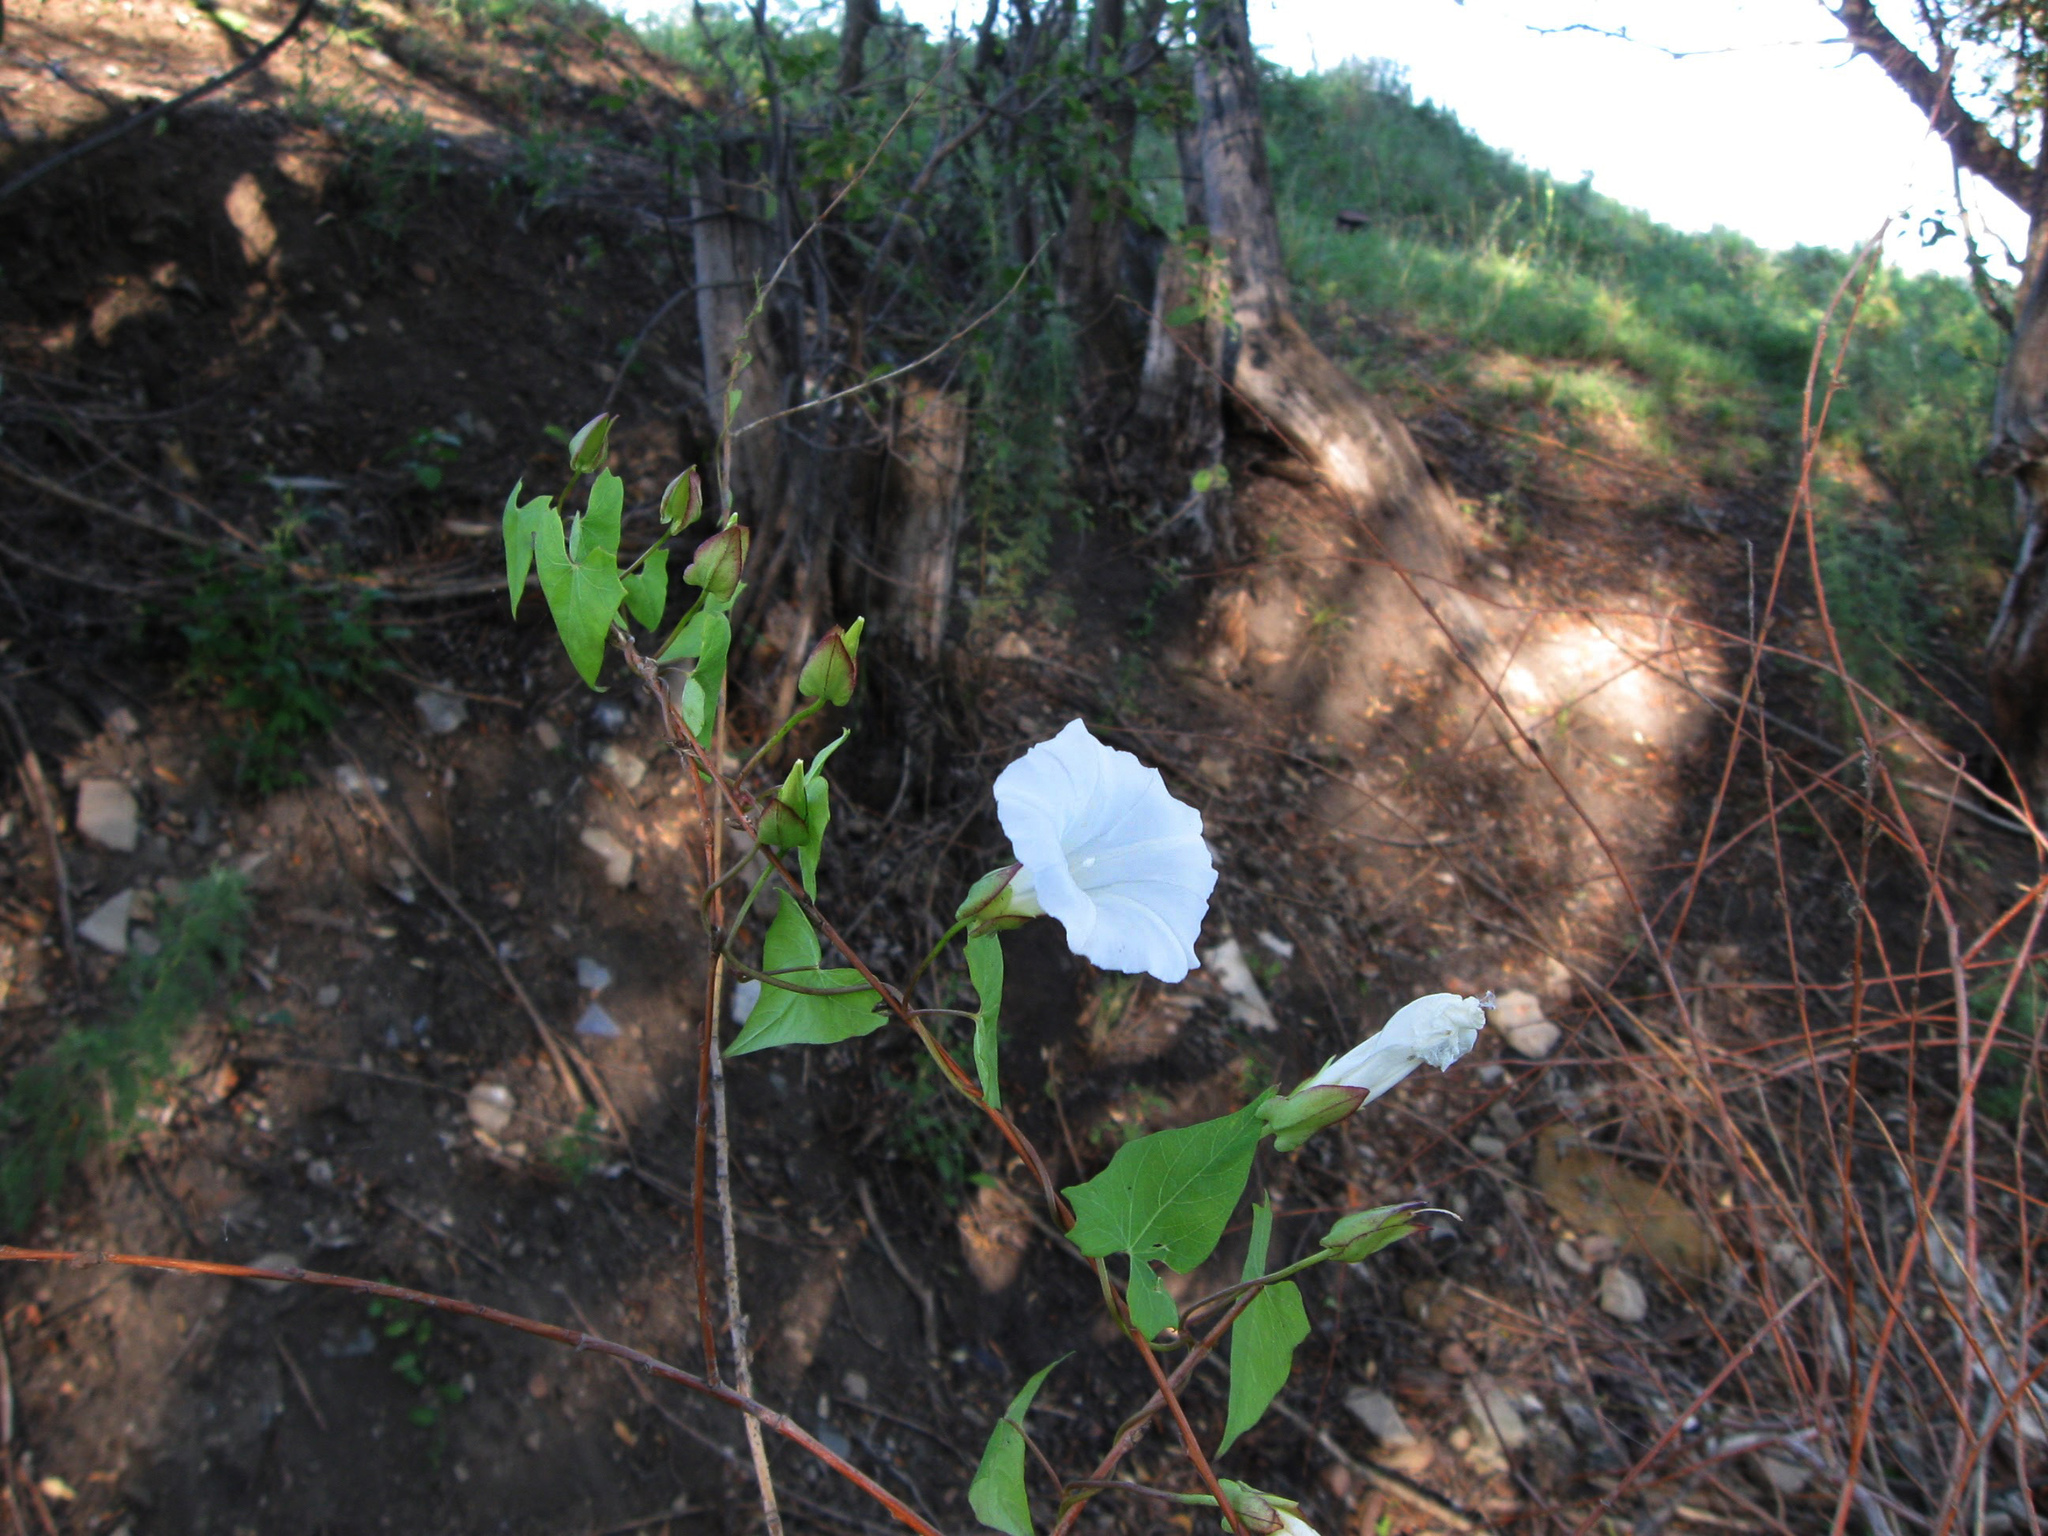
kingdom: Plantae
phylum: Tracheophyta
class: Magnoliopsida
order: Solanales
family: Convolvulaceae
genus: Calystegia
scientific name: Calystegia sepium
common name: Hedge bindweed
